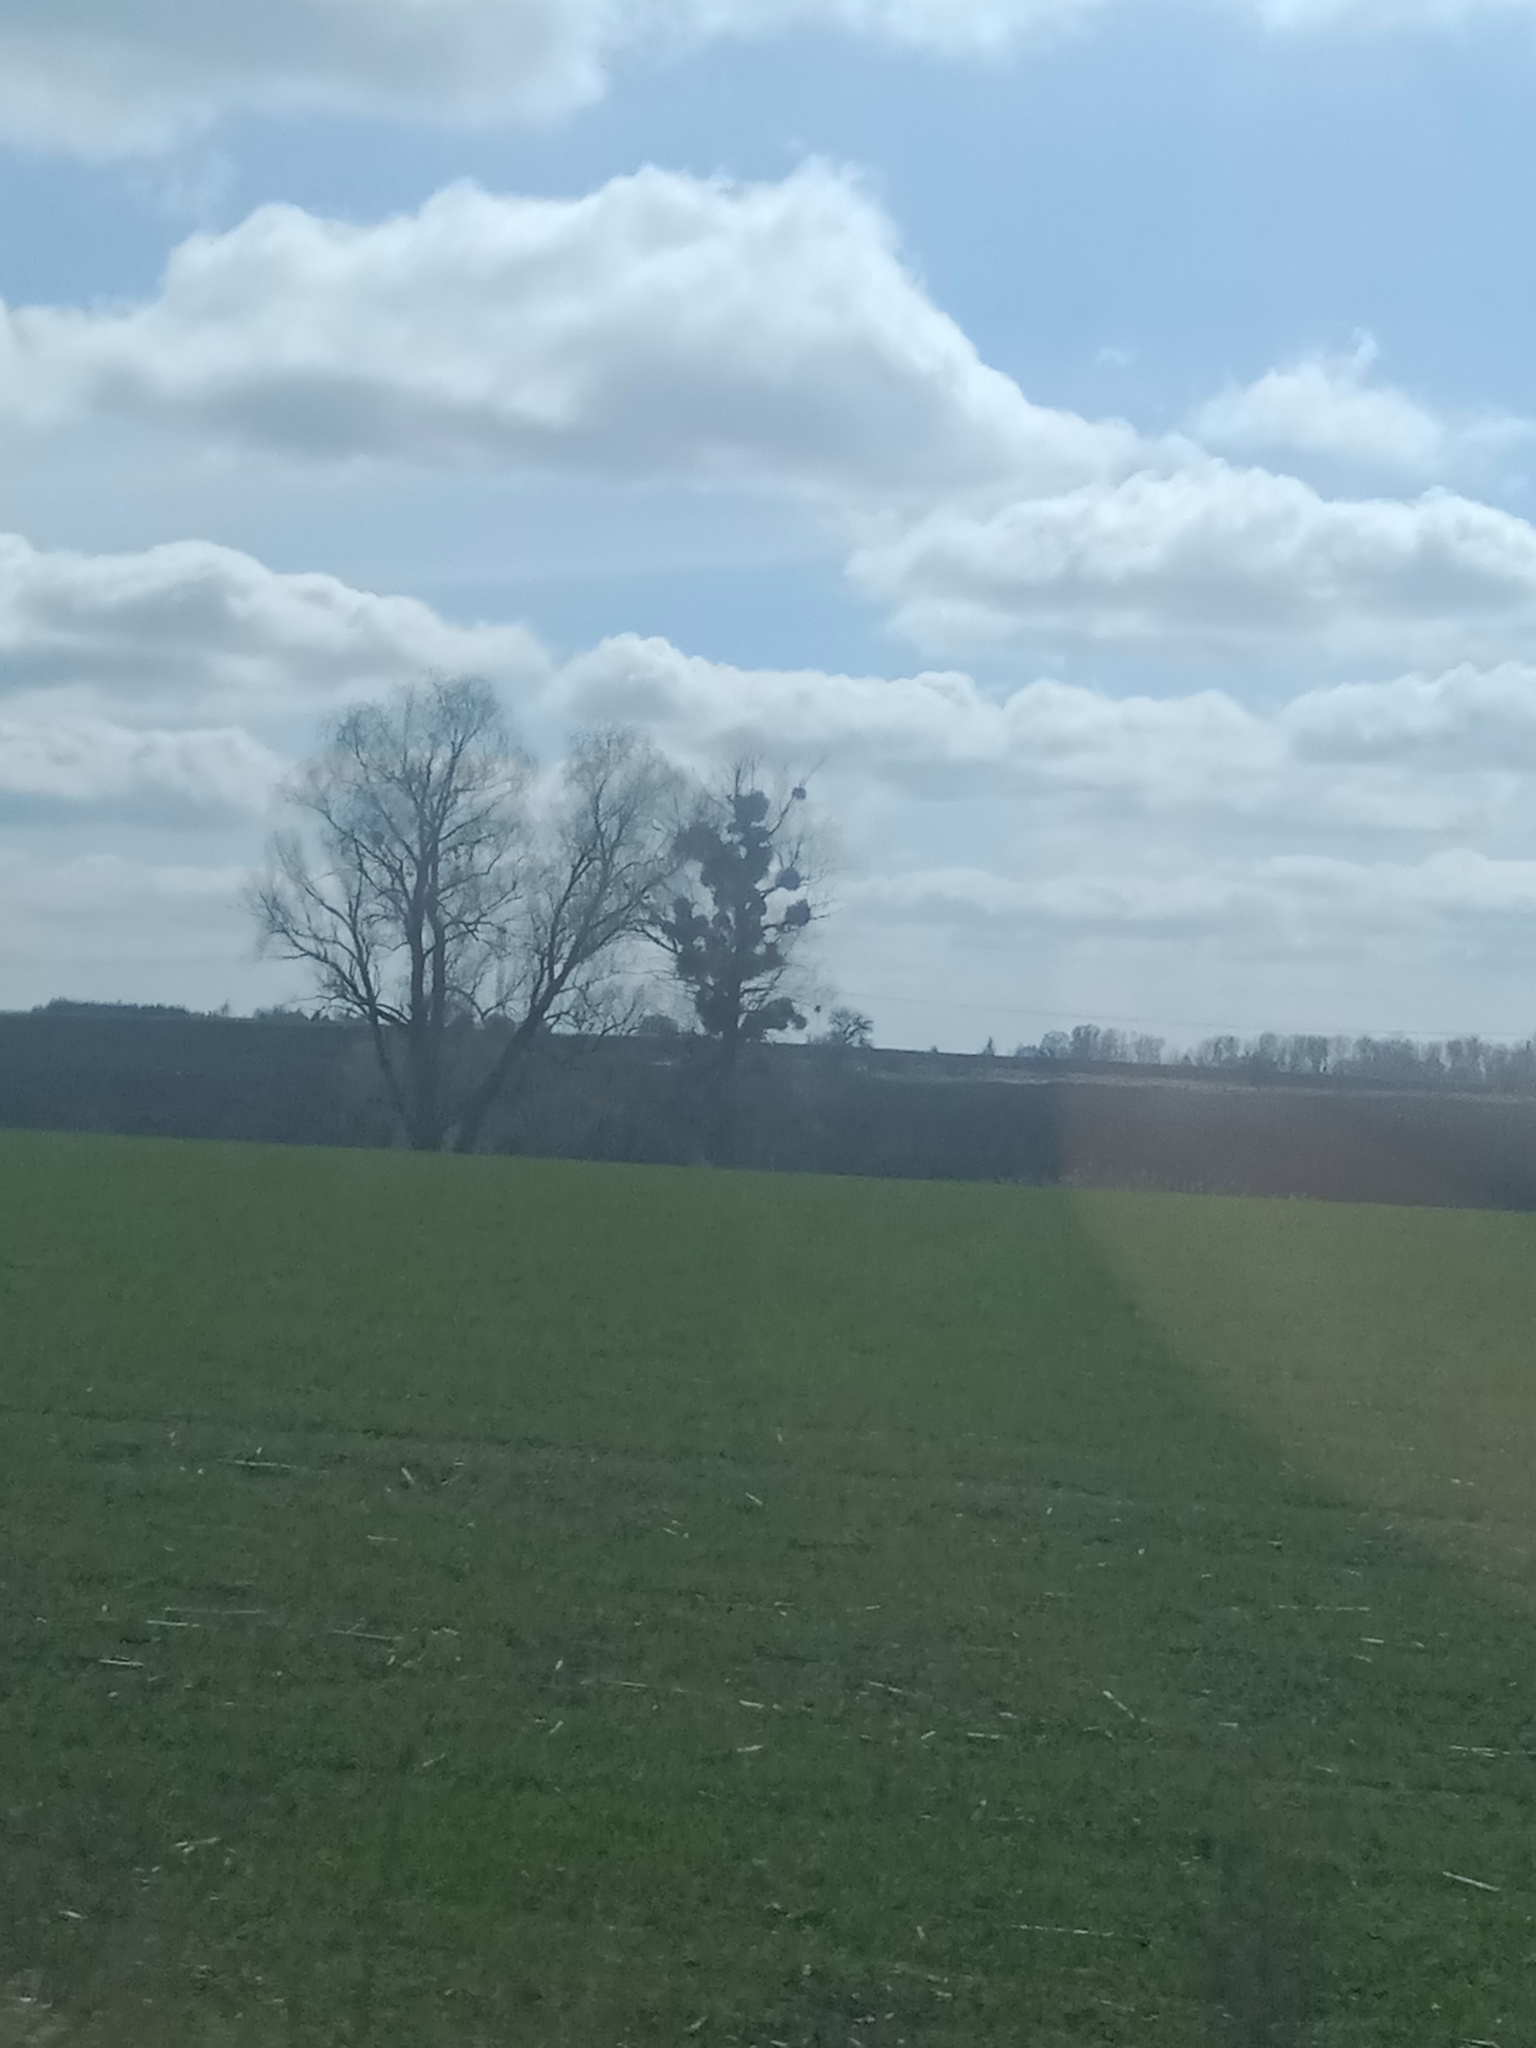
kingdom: Plantae
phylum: Tracheophyta
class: Magnoliopsida
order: Santalales
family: Viscaceae
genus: Viscum
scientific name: Viscum album
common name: Mistletoe
